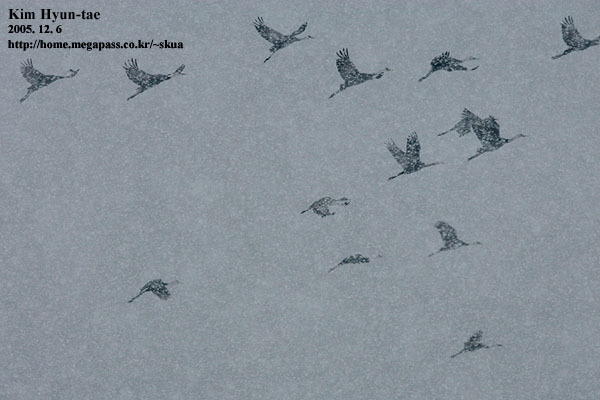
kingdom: Animalia
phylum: Chordata
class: Aves
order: Gruiformes
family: Gruidae
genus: Grus
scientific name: Grus monacha
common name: Hooded crane
